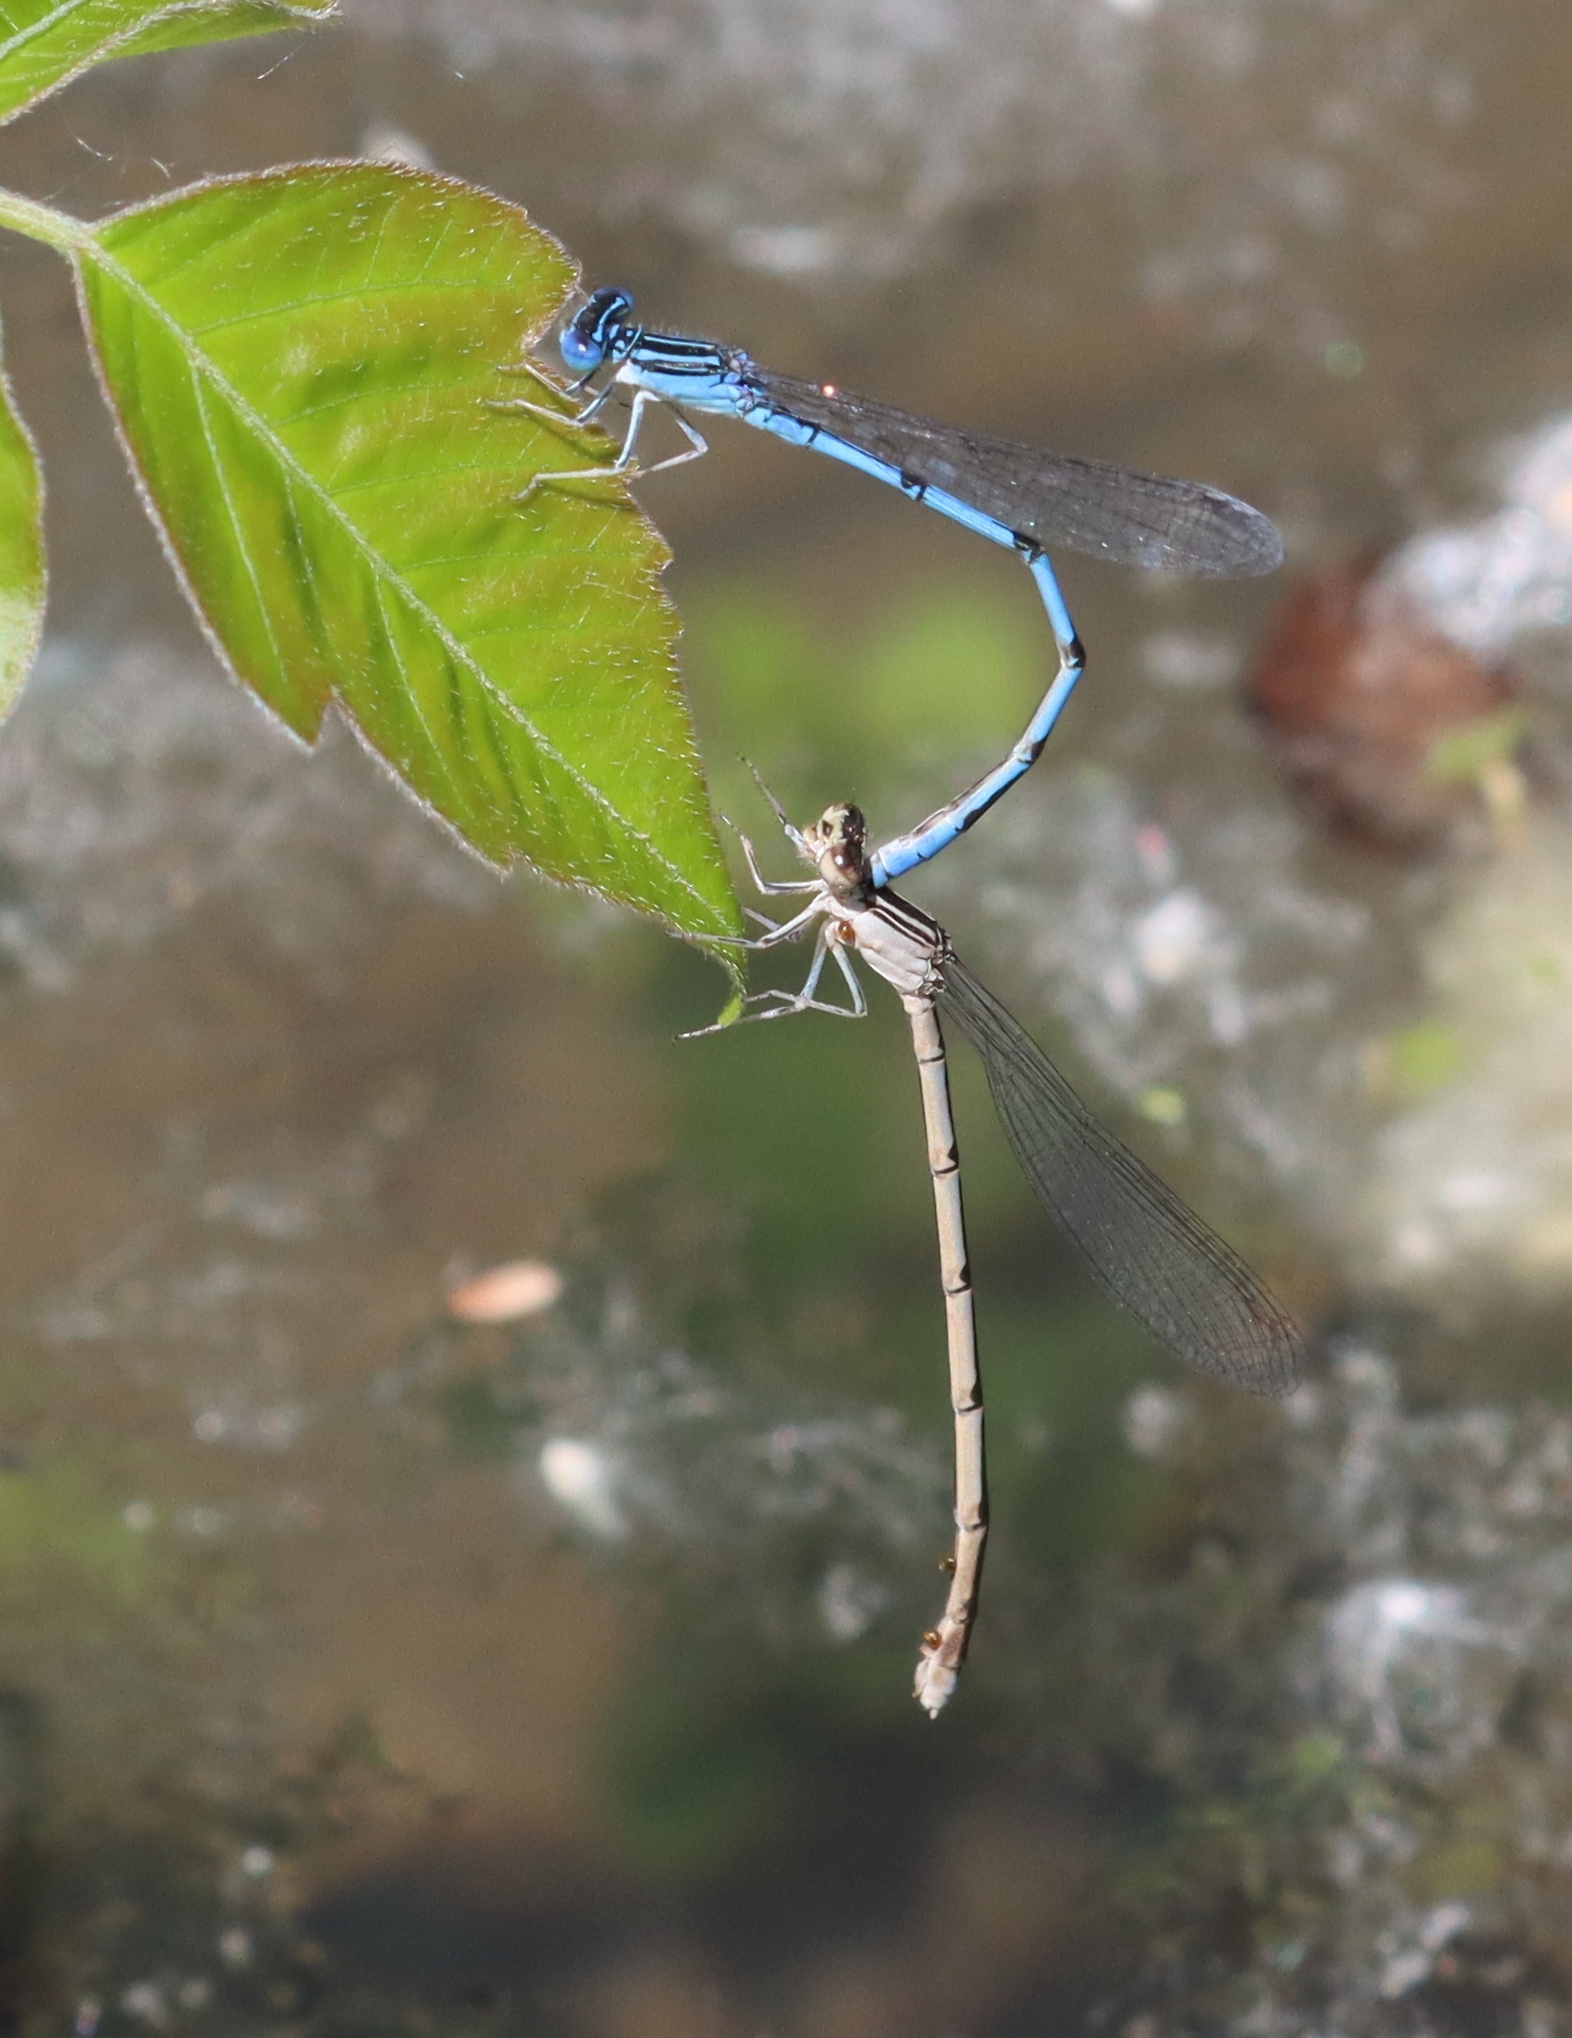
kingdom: Animalia
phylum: Arthropoda
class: Insecta
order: Odonata
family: Coenagrionidae
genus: Enallagma
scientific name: Enallagma basidens
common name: Double-striped bluet
